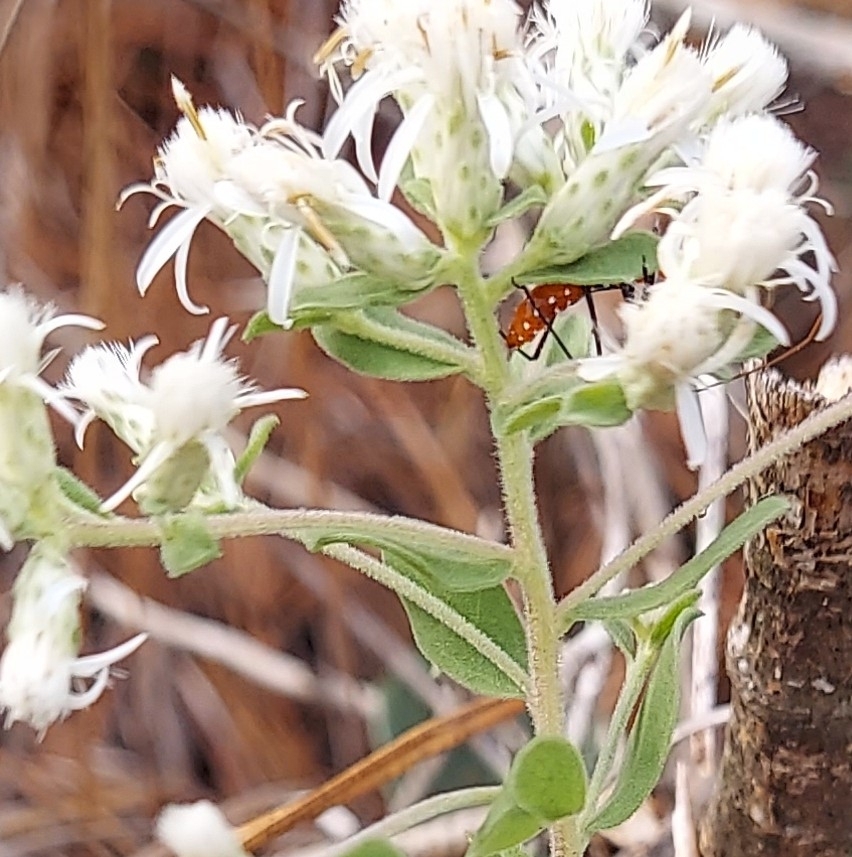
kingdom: Animalia
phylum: Arthropoda
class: Insecta
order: Hemiptera
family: Reduviidae
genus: Zelus
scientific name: Zelus longipes
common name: Milkweed assassin bug
